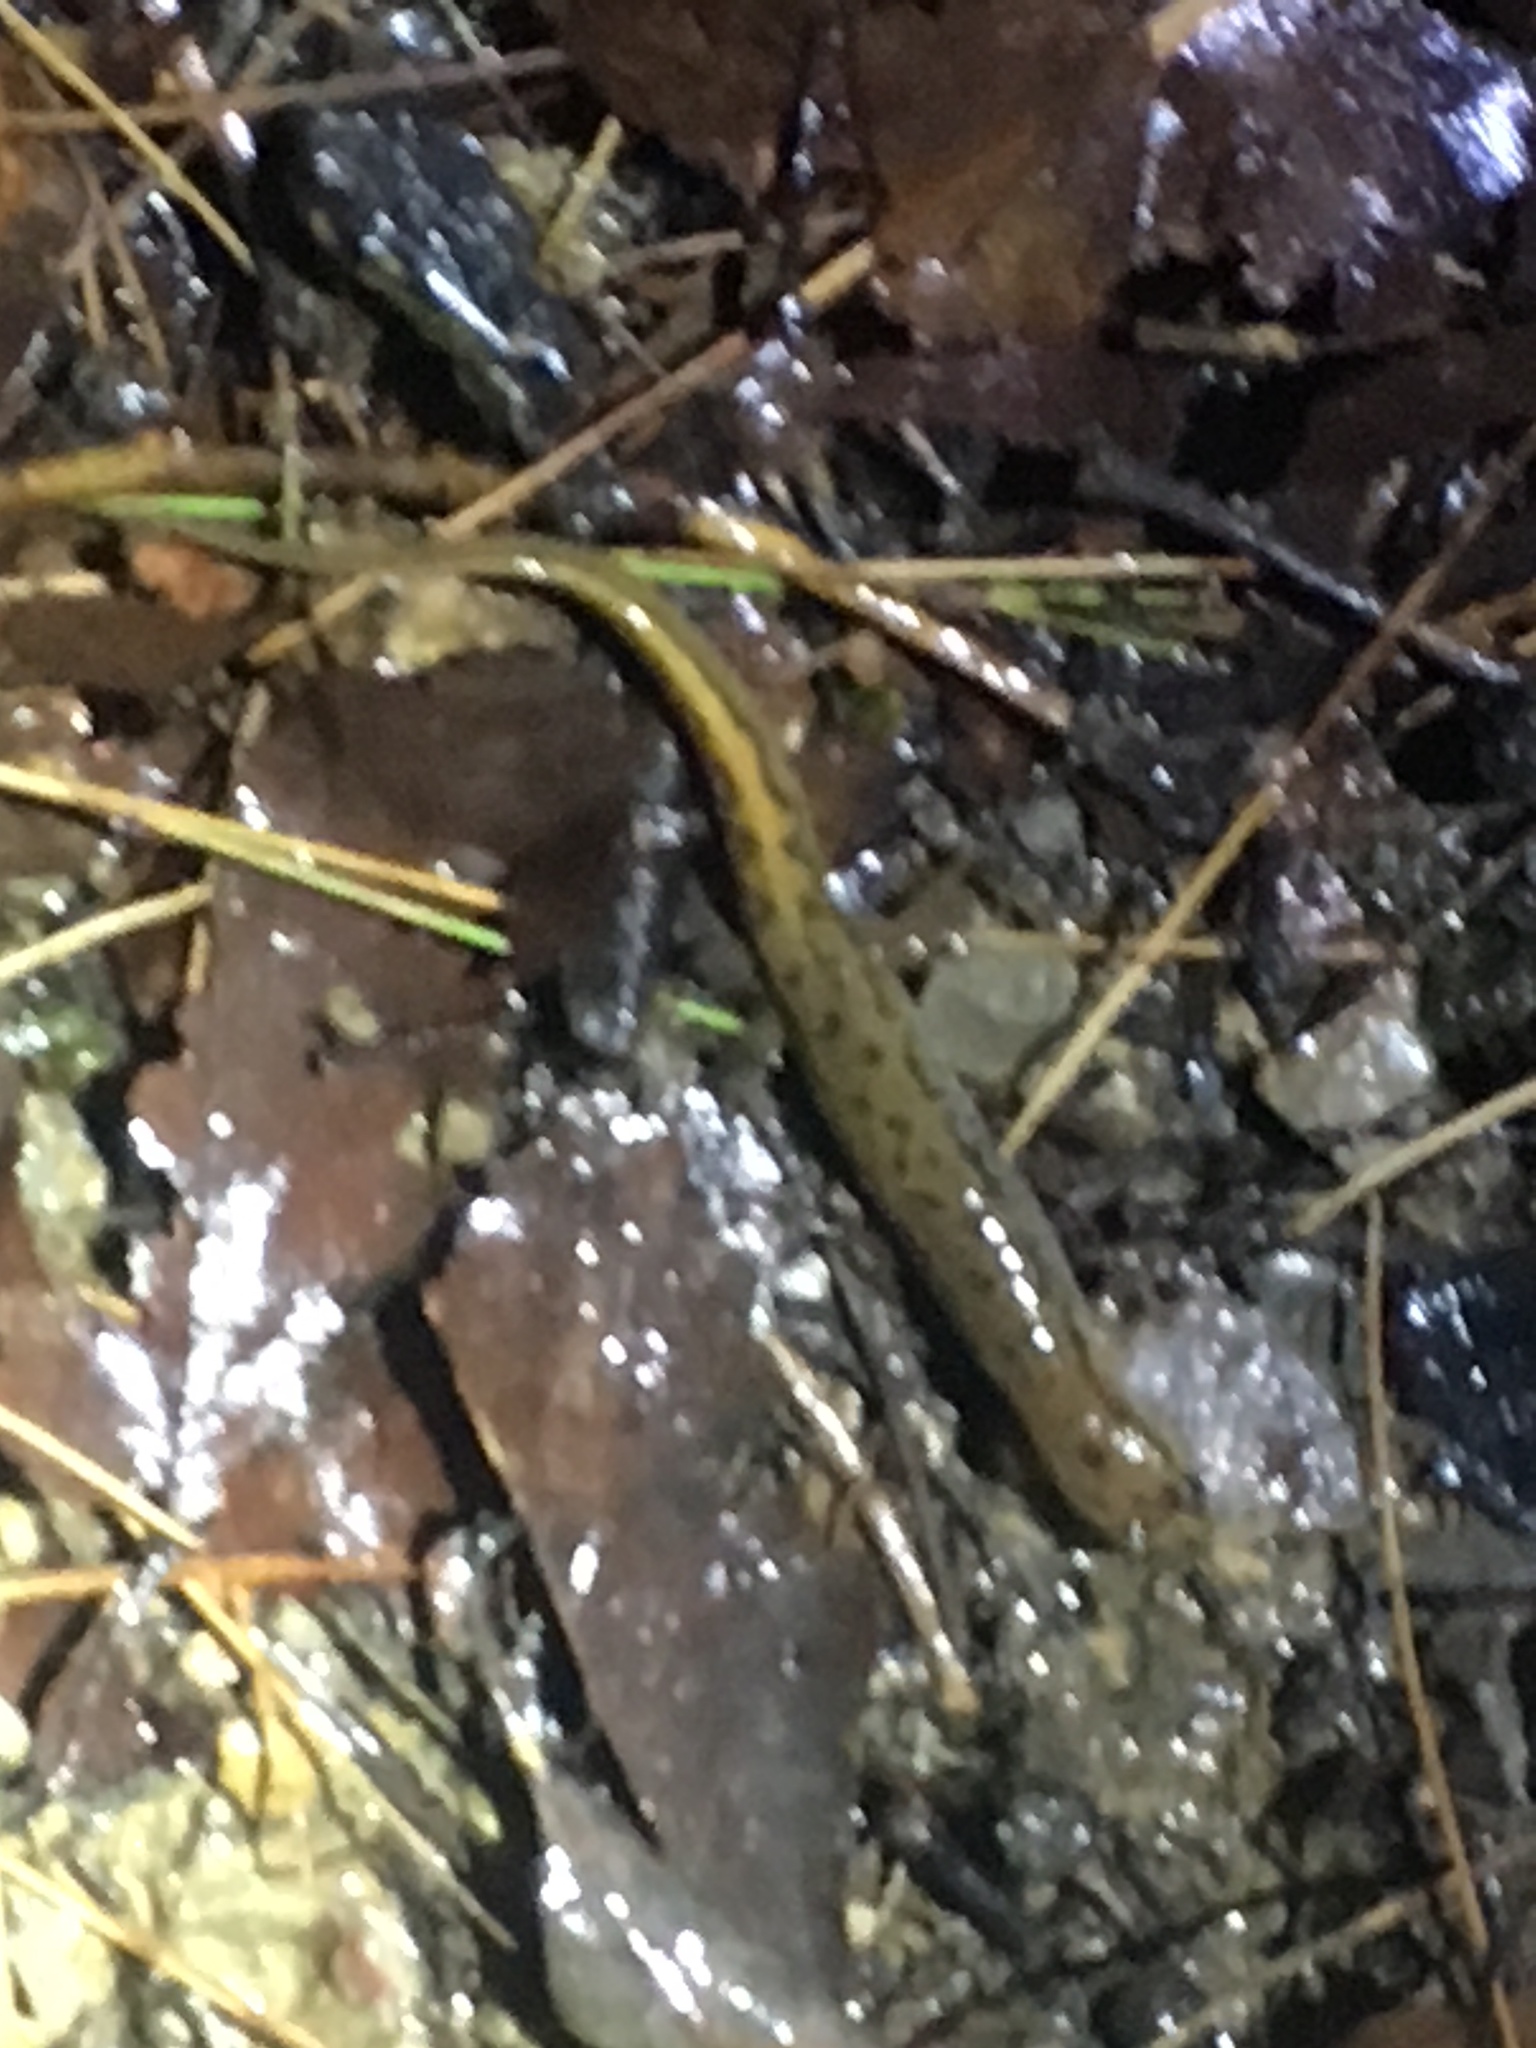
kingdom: Animalia
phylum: Chordata
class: Amphibia
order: Caudata
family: Plethodontidae
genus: Desmognathus
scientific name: Desmognathus fuscus
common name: Northern dusky salamander
